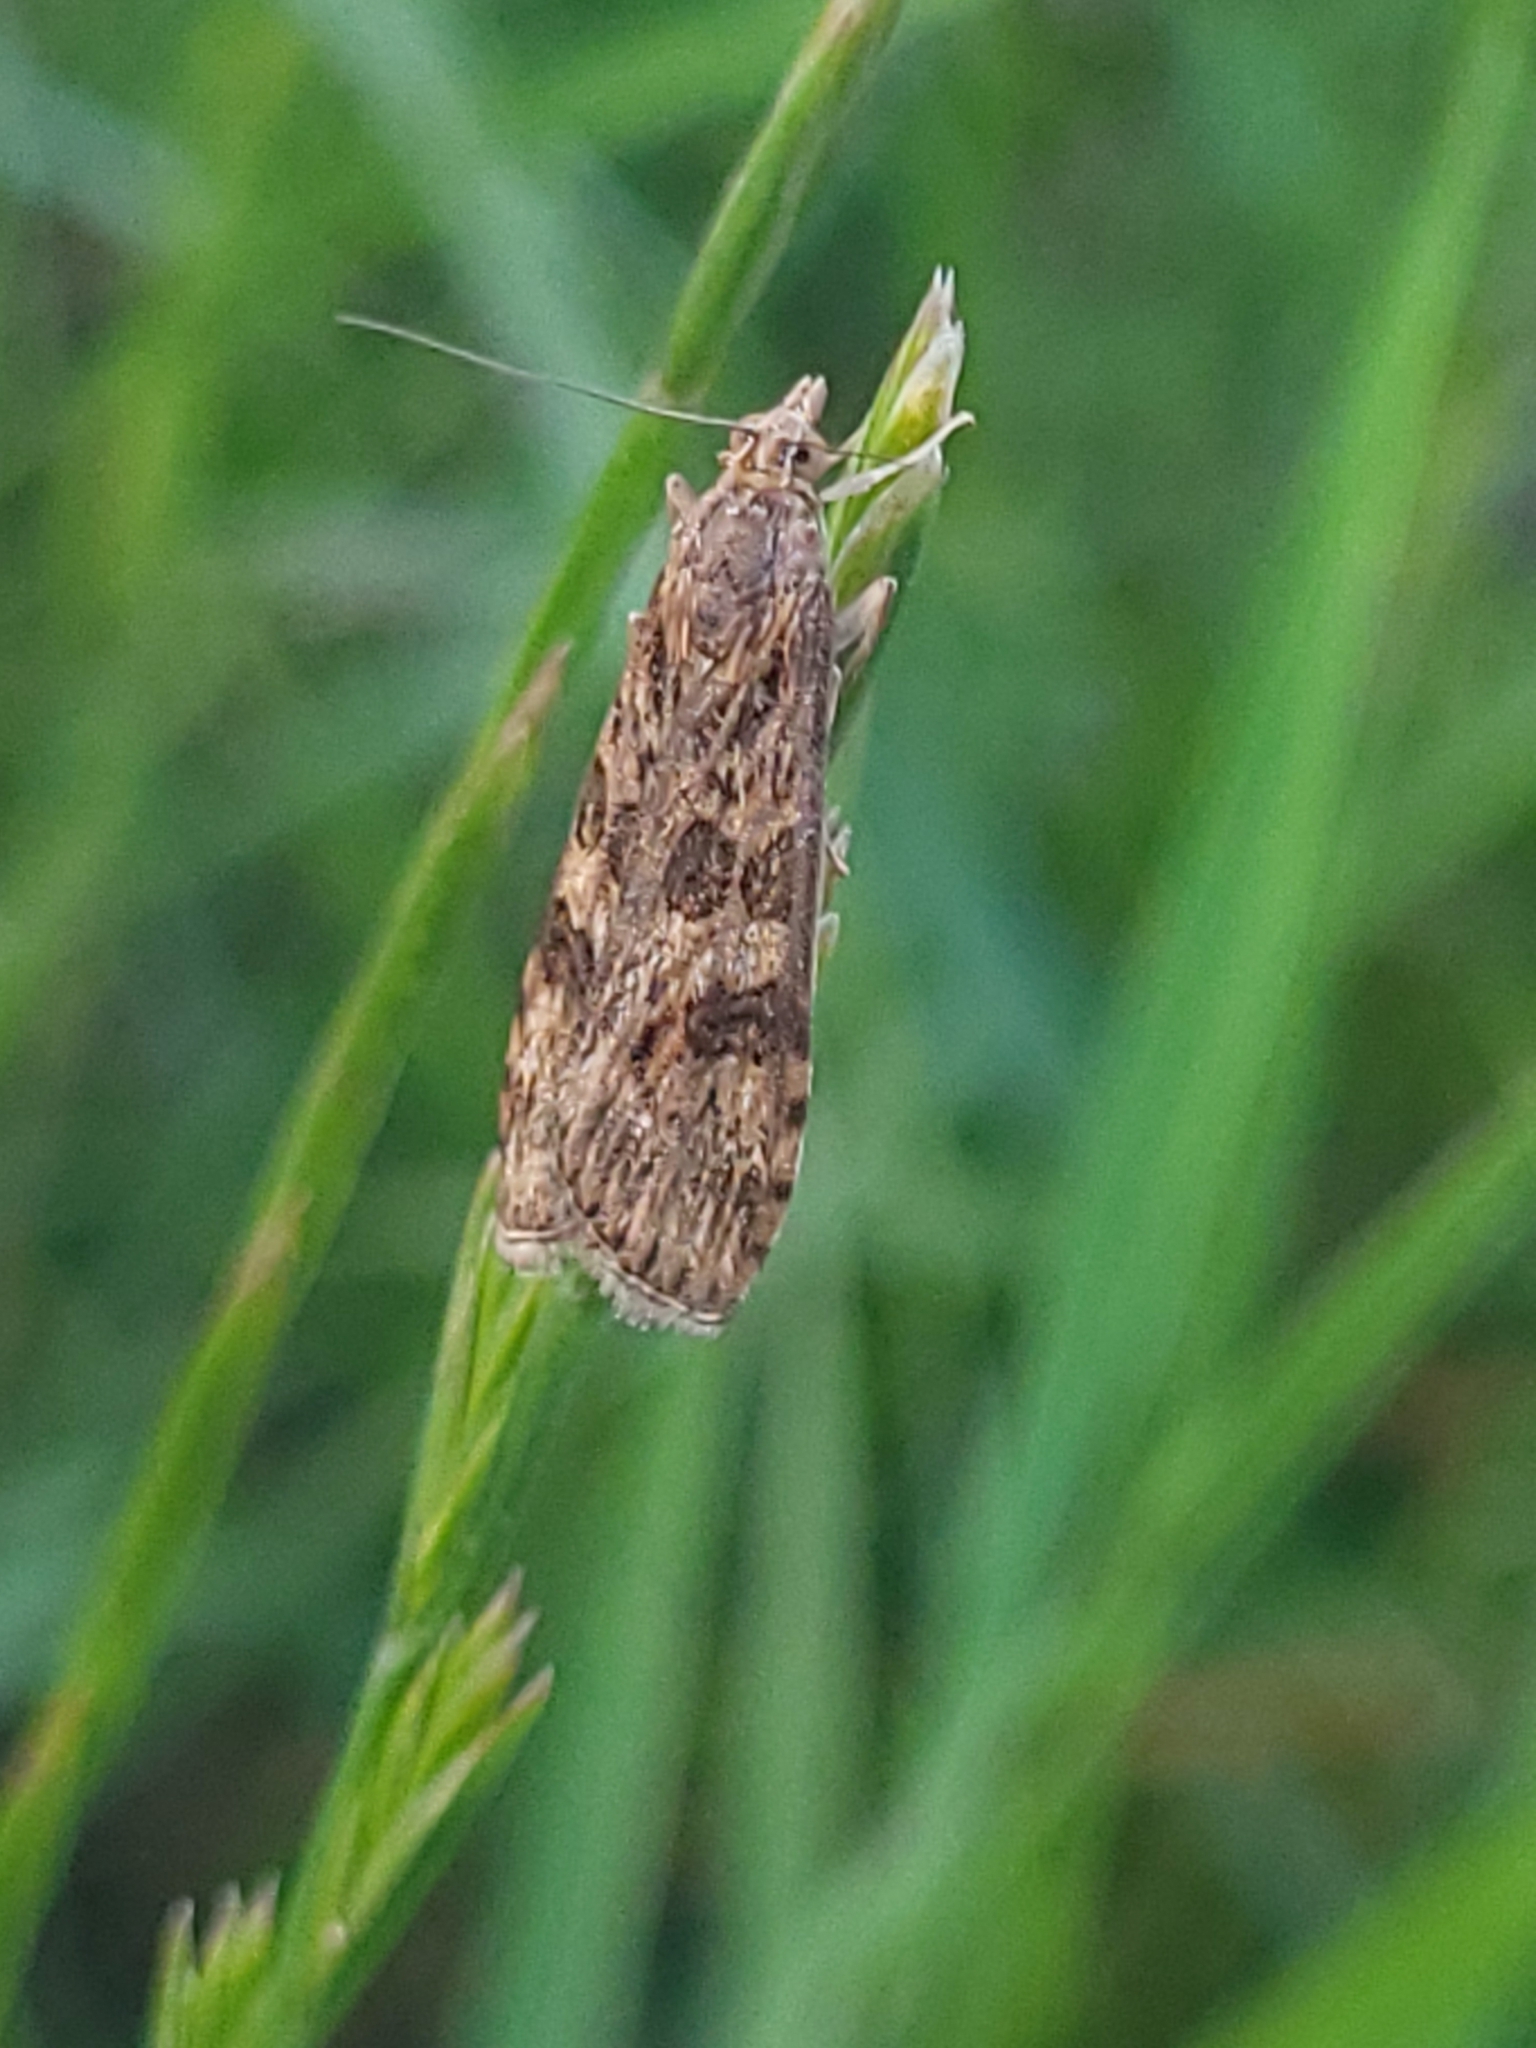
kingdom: Animalia
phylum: Arthropoda
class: Insecta
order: Lepidoptera
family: Crambidae
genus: Nomophila
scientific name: Nomophila noctuella
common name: Rush veneer
